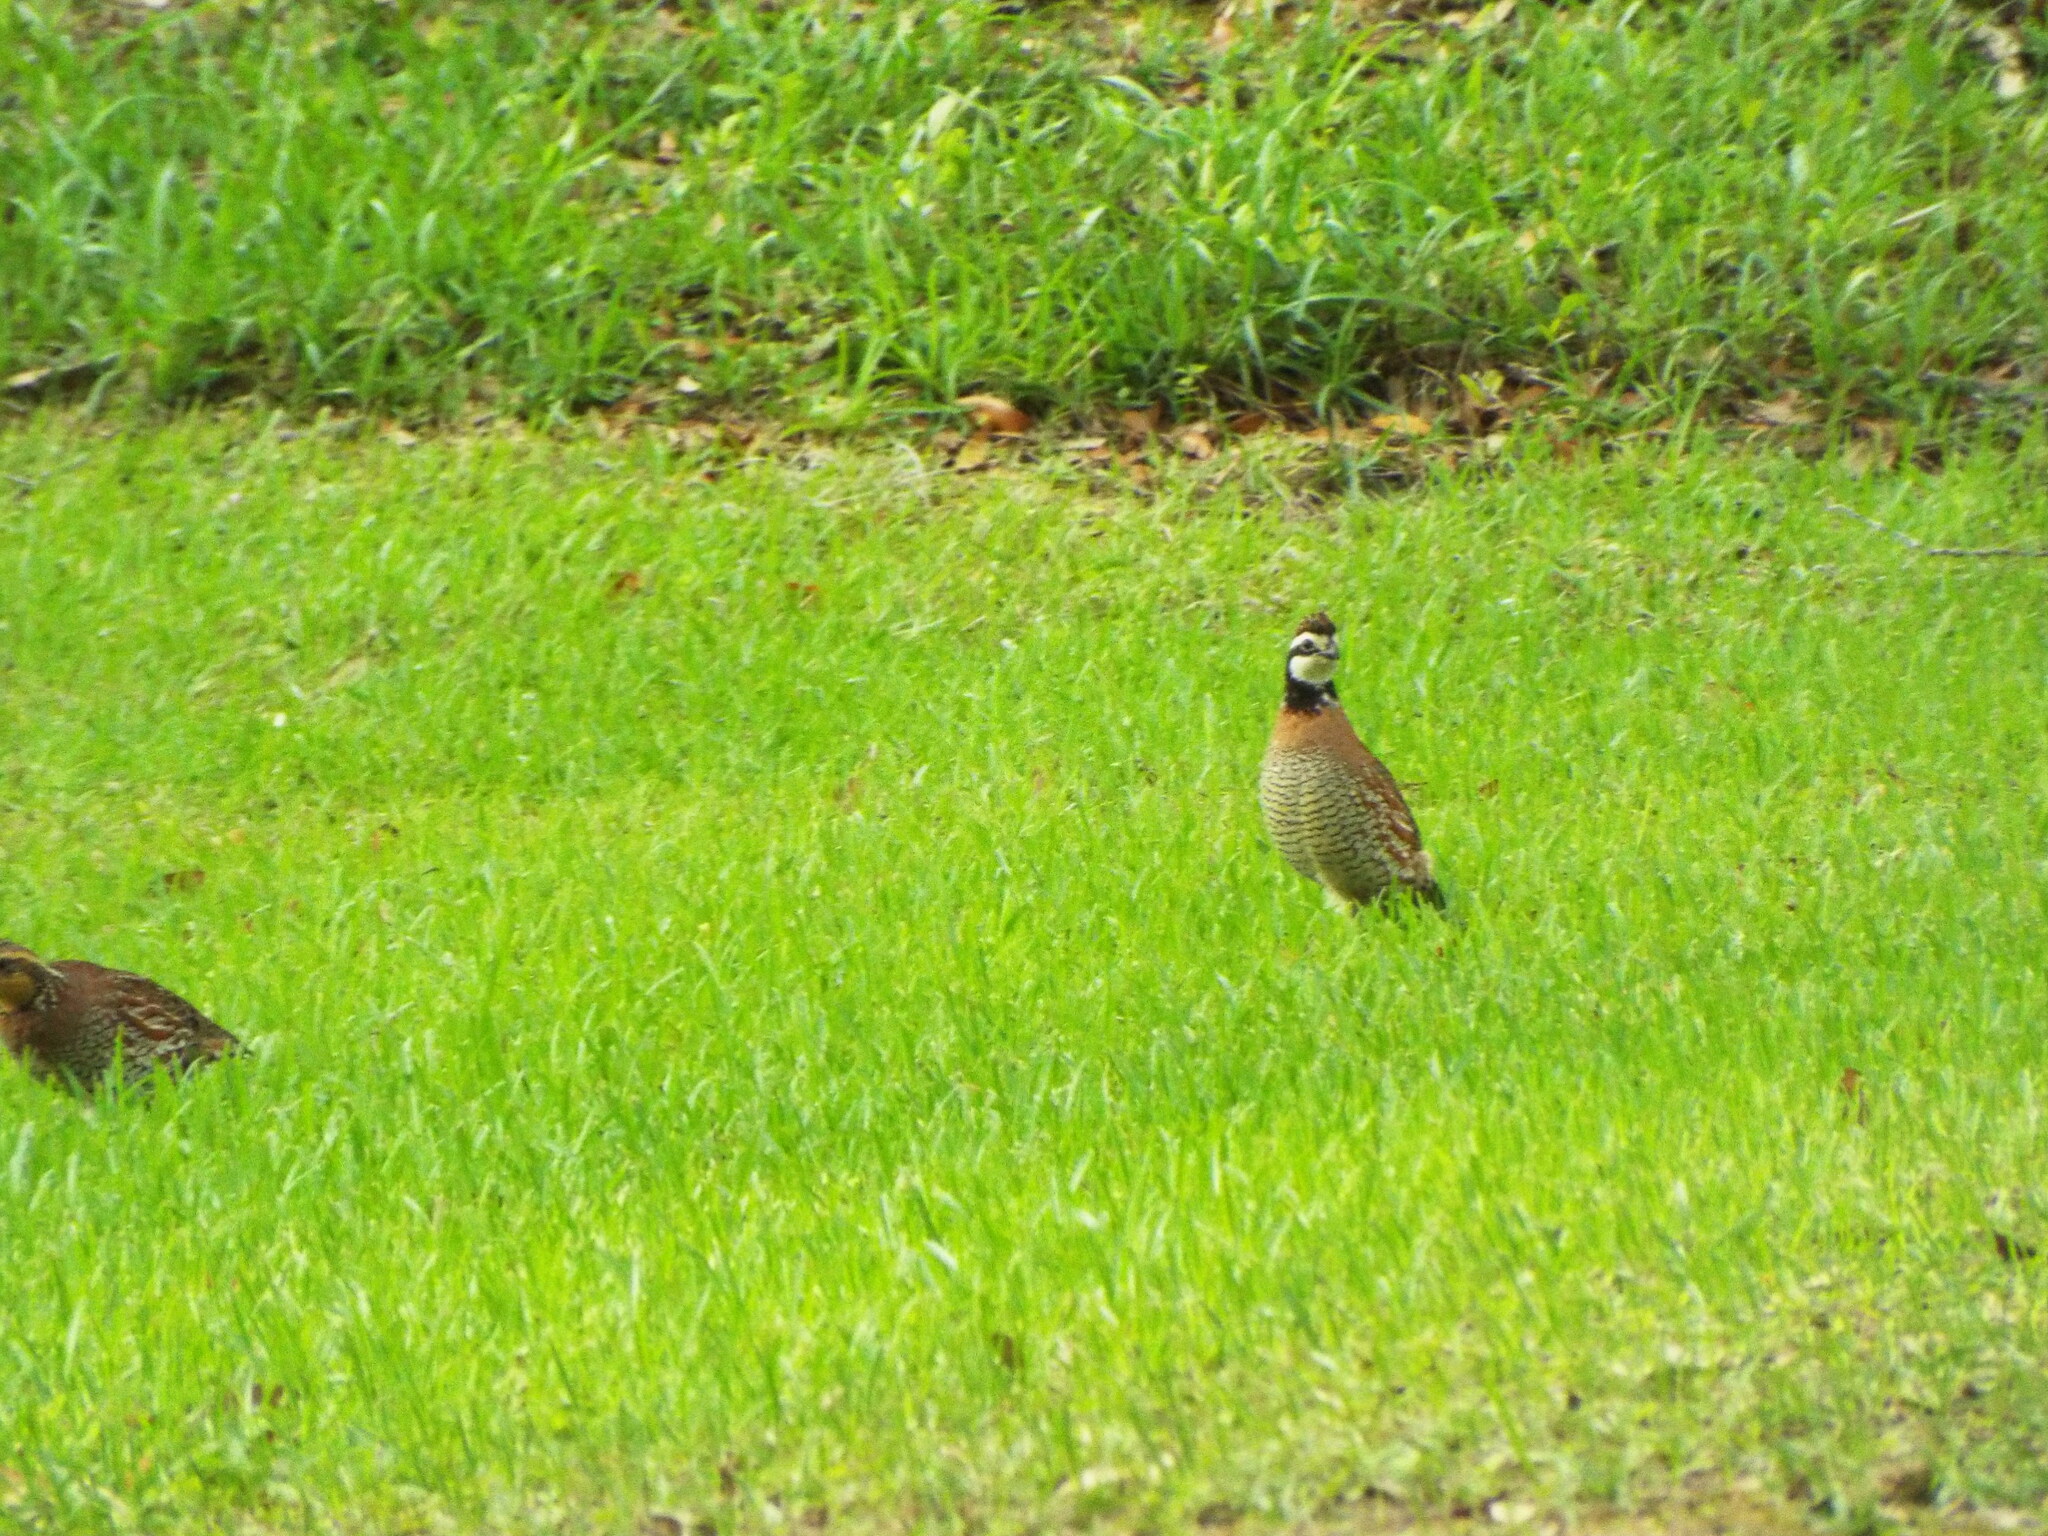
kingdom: Animalia
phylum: Chordata
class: Aves
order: Galliformes
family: Odontophoridae
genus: Colinus
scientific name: Colinus virginianus
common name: Northern bobwhite
